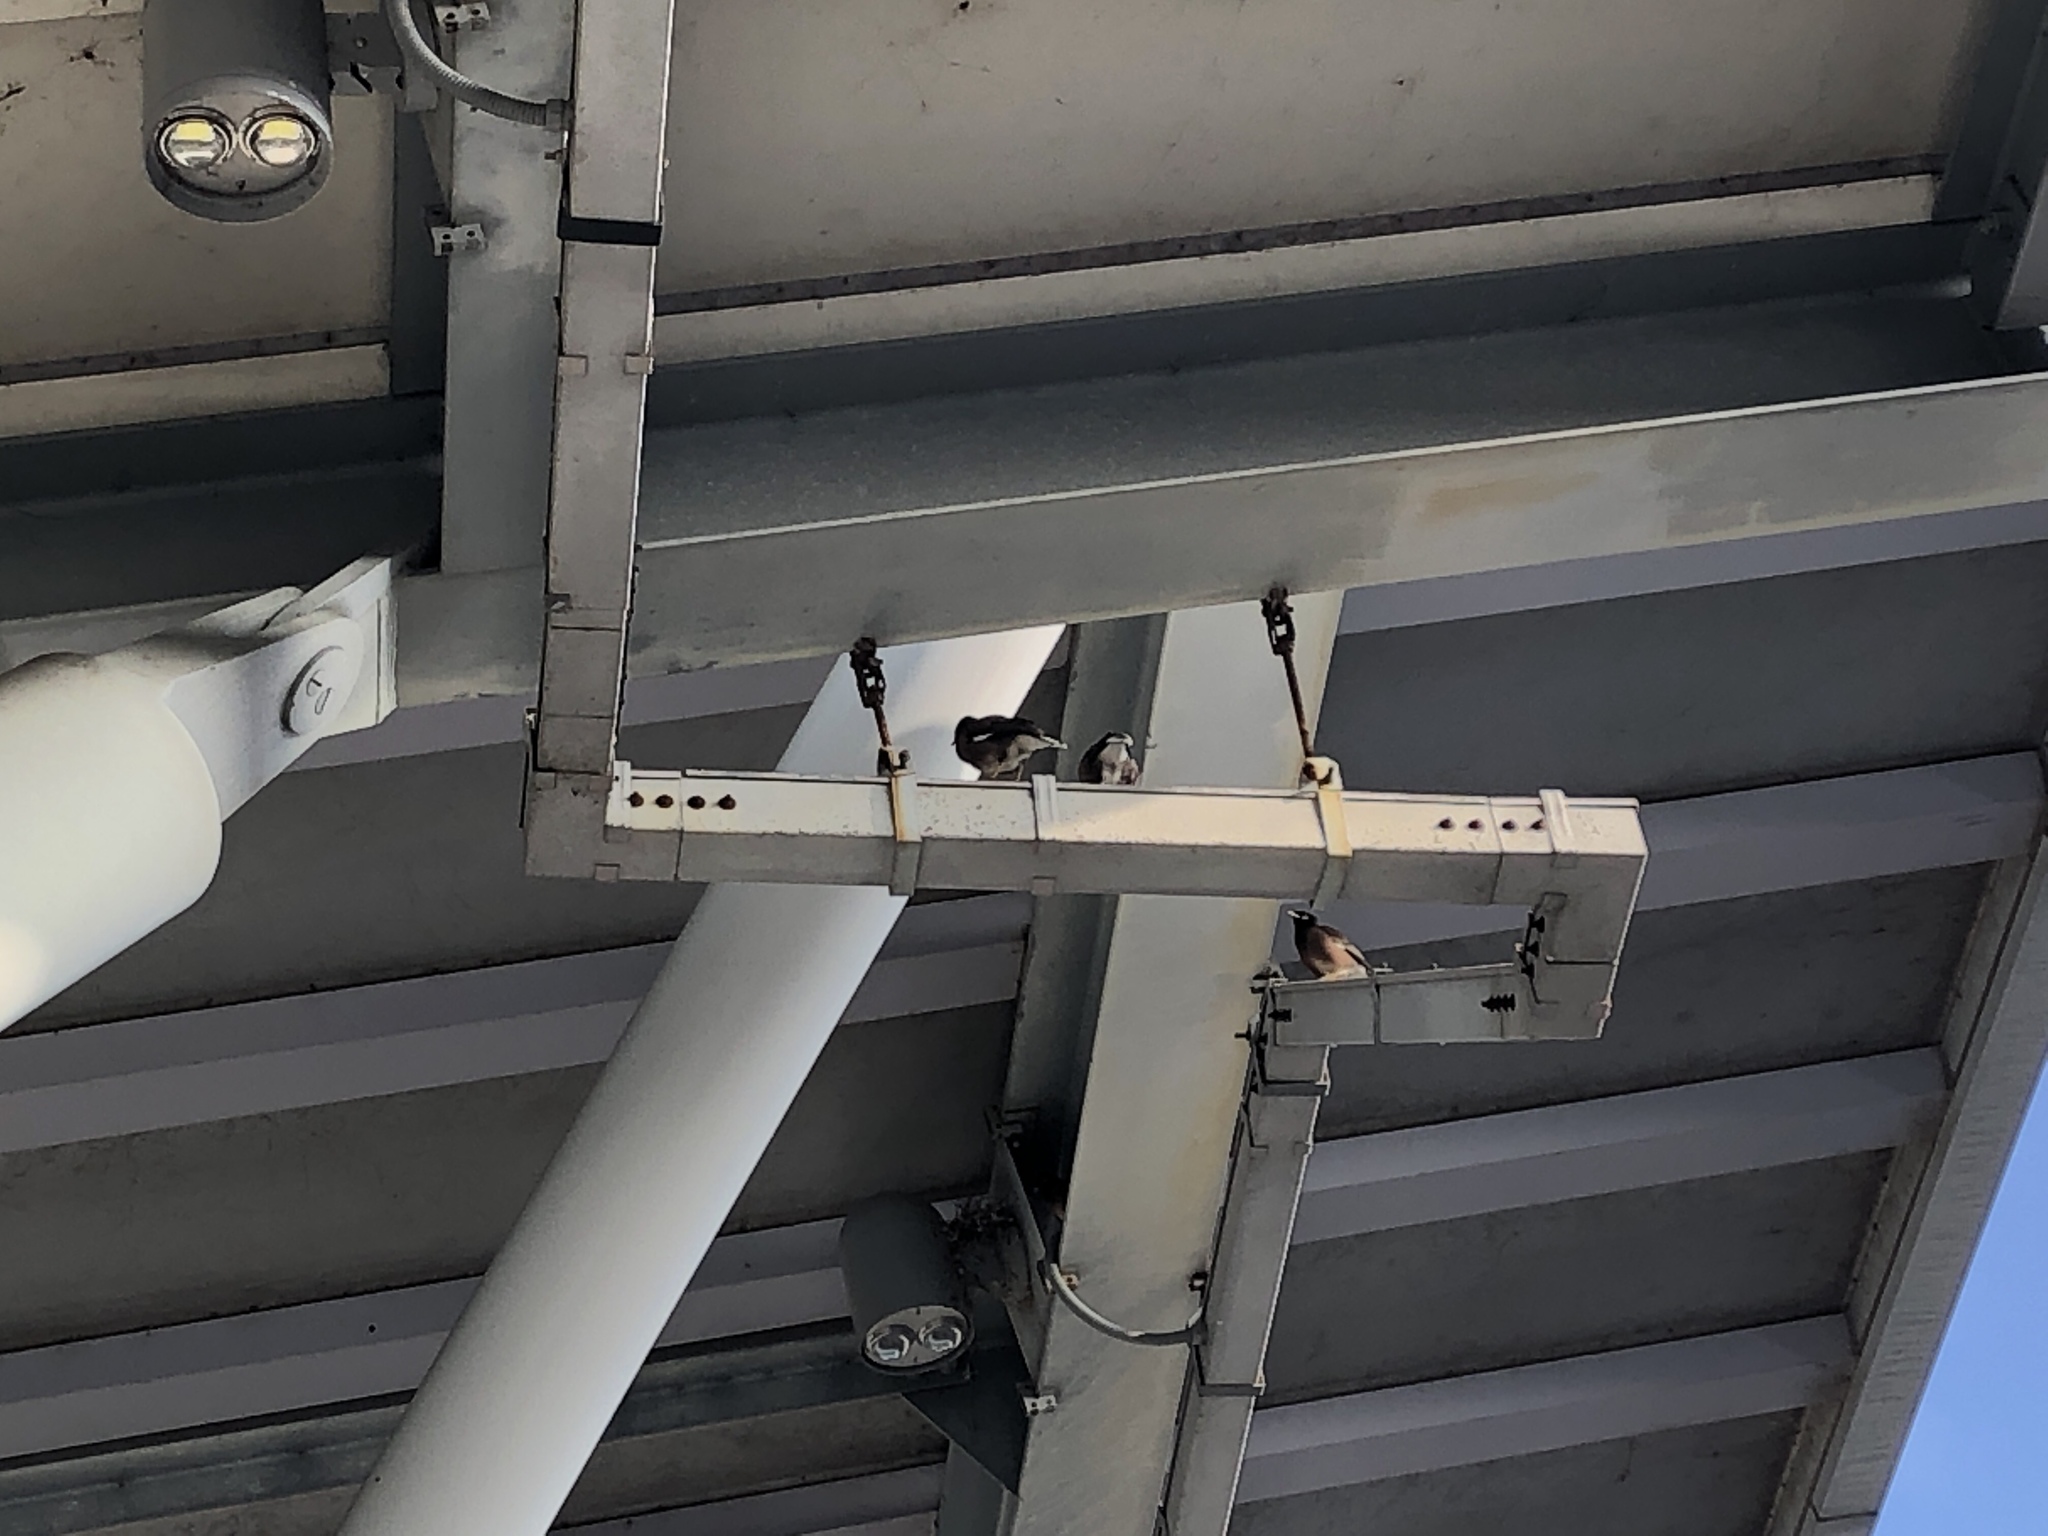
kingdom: Animalia
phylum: Chordata
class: Aves
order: Passeriformes
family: Sturnidae
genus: Acridotheres
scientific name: Acridotheres tristis
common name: Common myna
